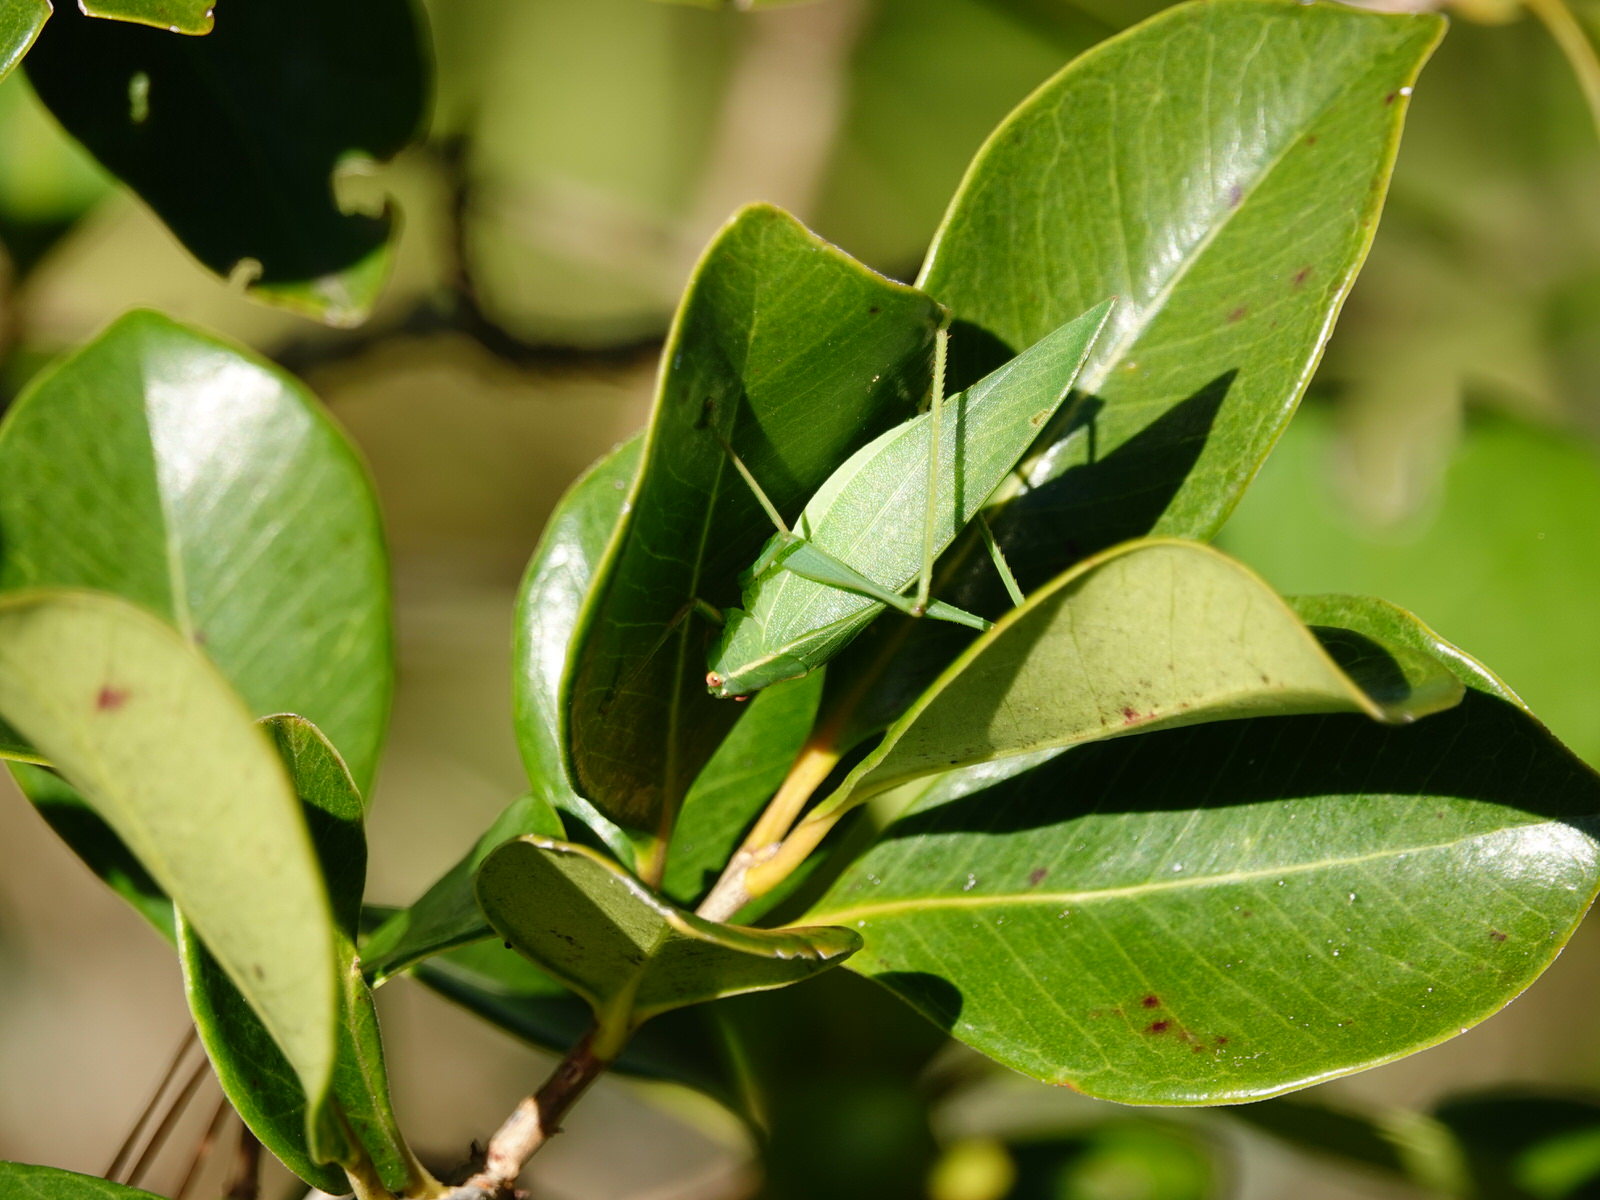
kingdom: Animalia
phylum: Arthropoda
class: Insecta
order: Orthoptera
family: Tettigoniidae
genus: Caedicia
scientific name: Caedicia simplex
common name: Common garden katydid
